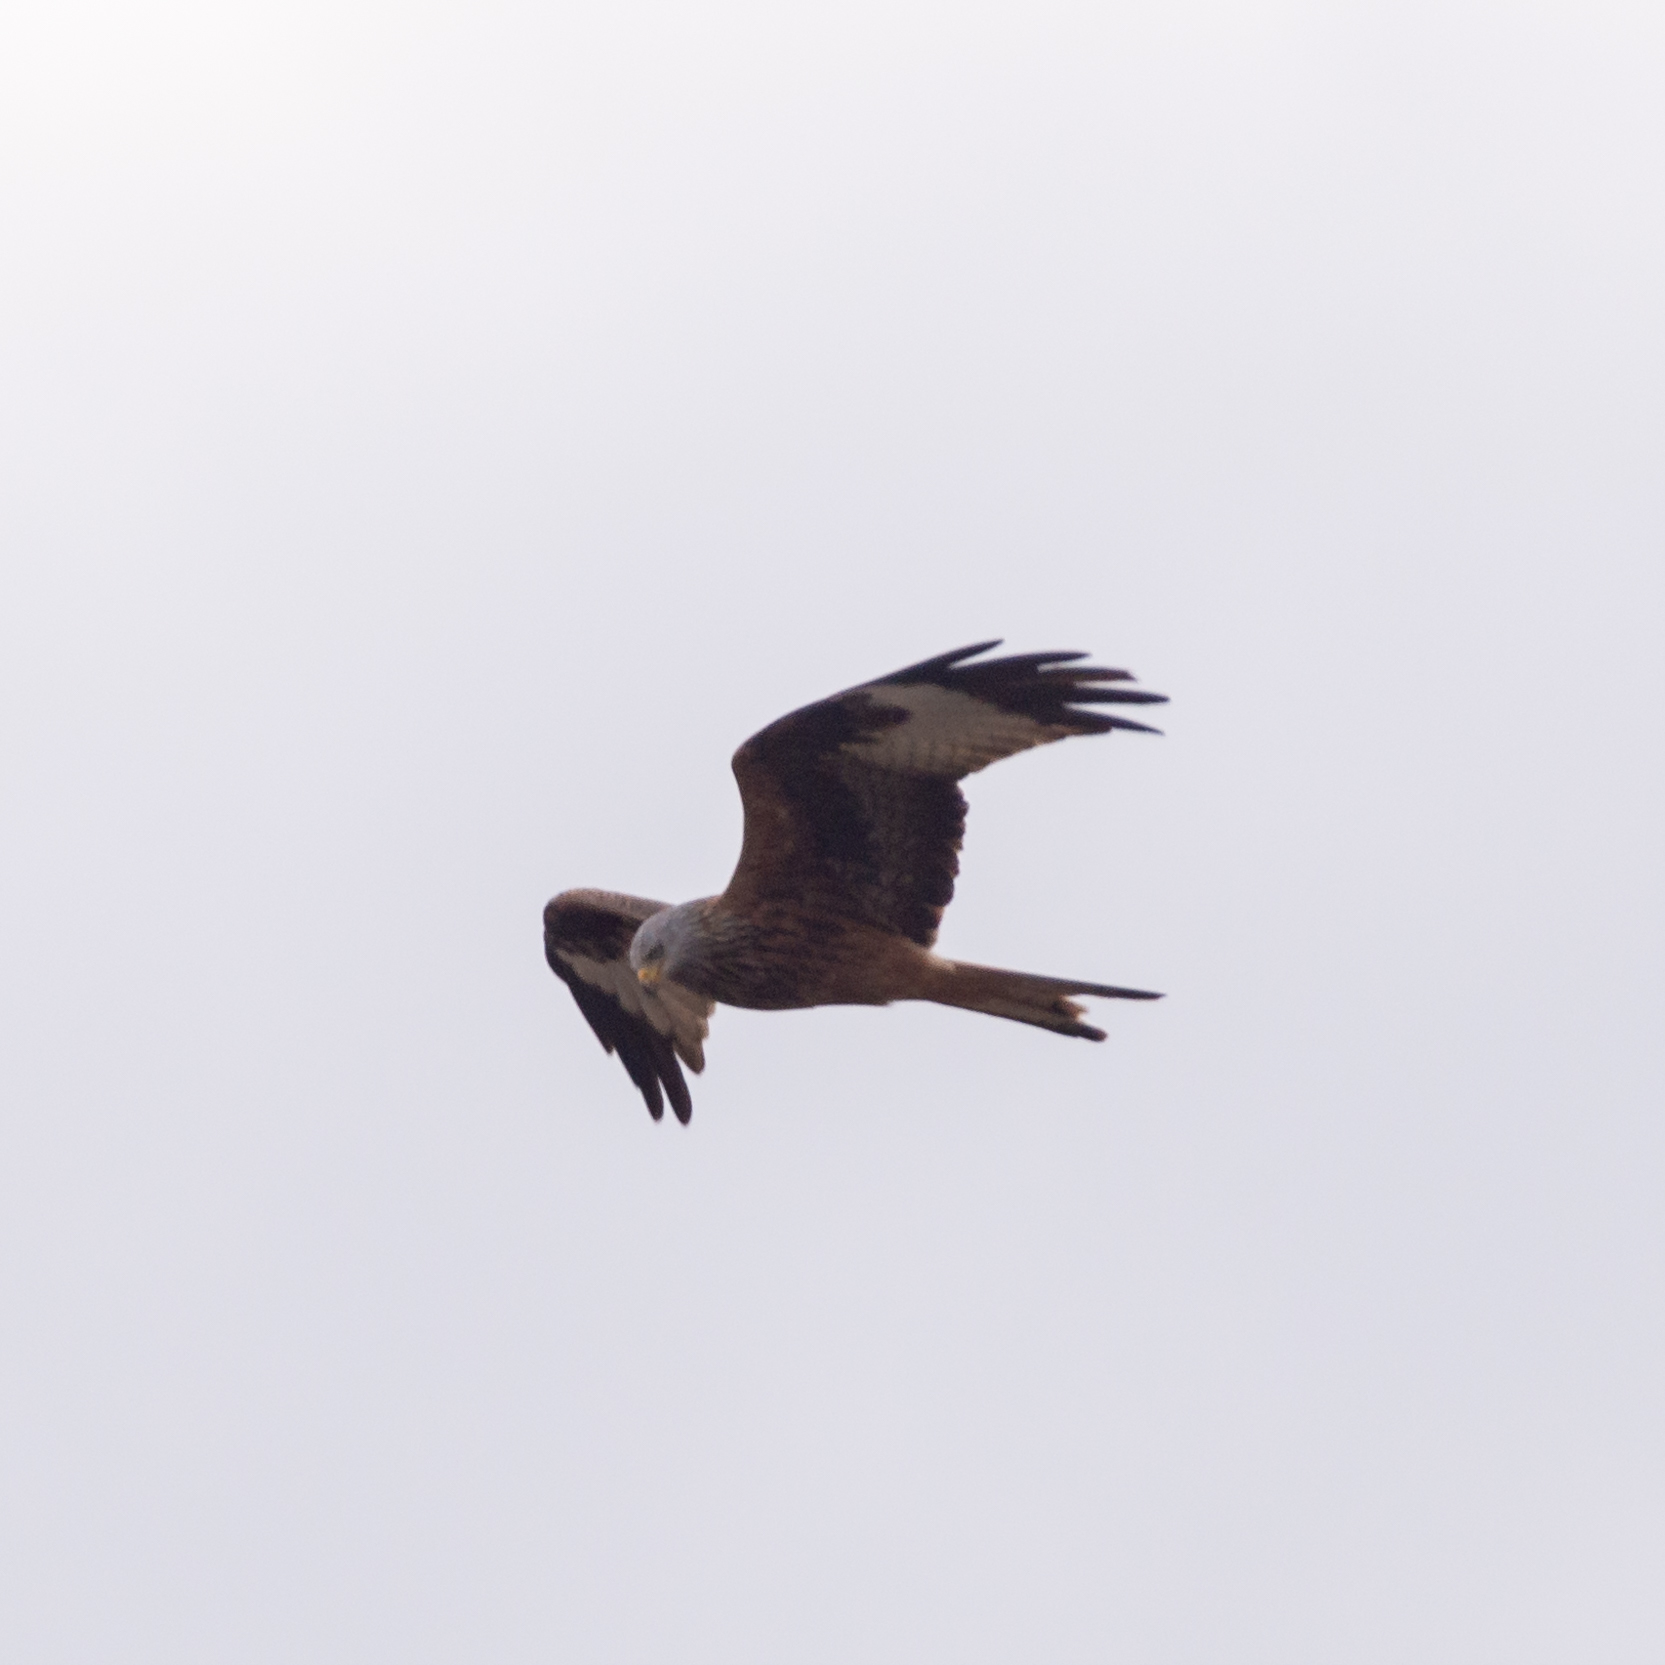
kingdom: Animalia
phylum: Chordata
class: Aves
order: Accipitriformes
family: Accipitridae
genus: Milvus
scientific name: Milvus milvus
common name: Red kite
